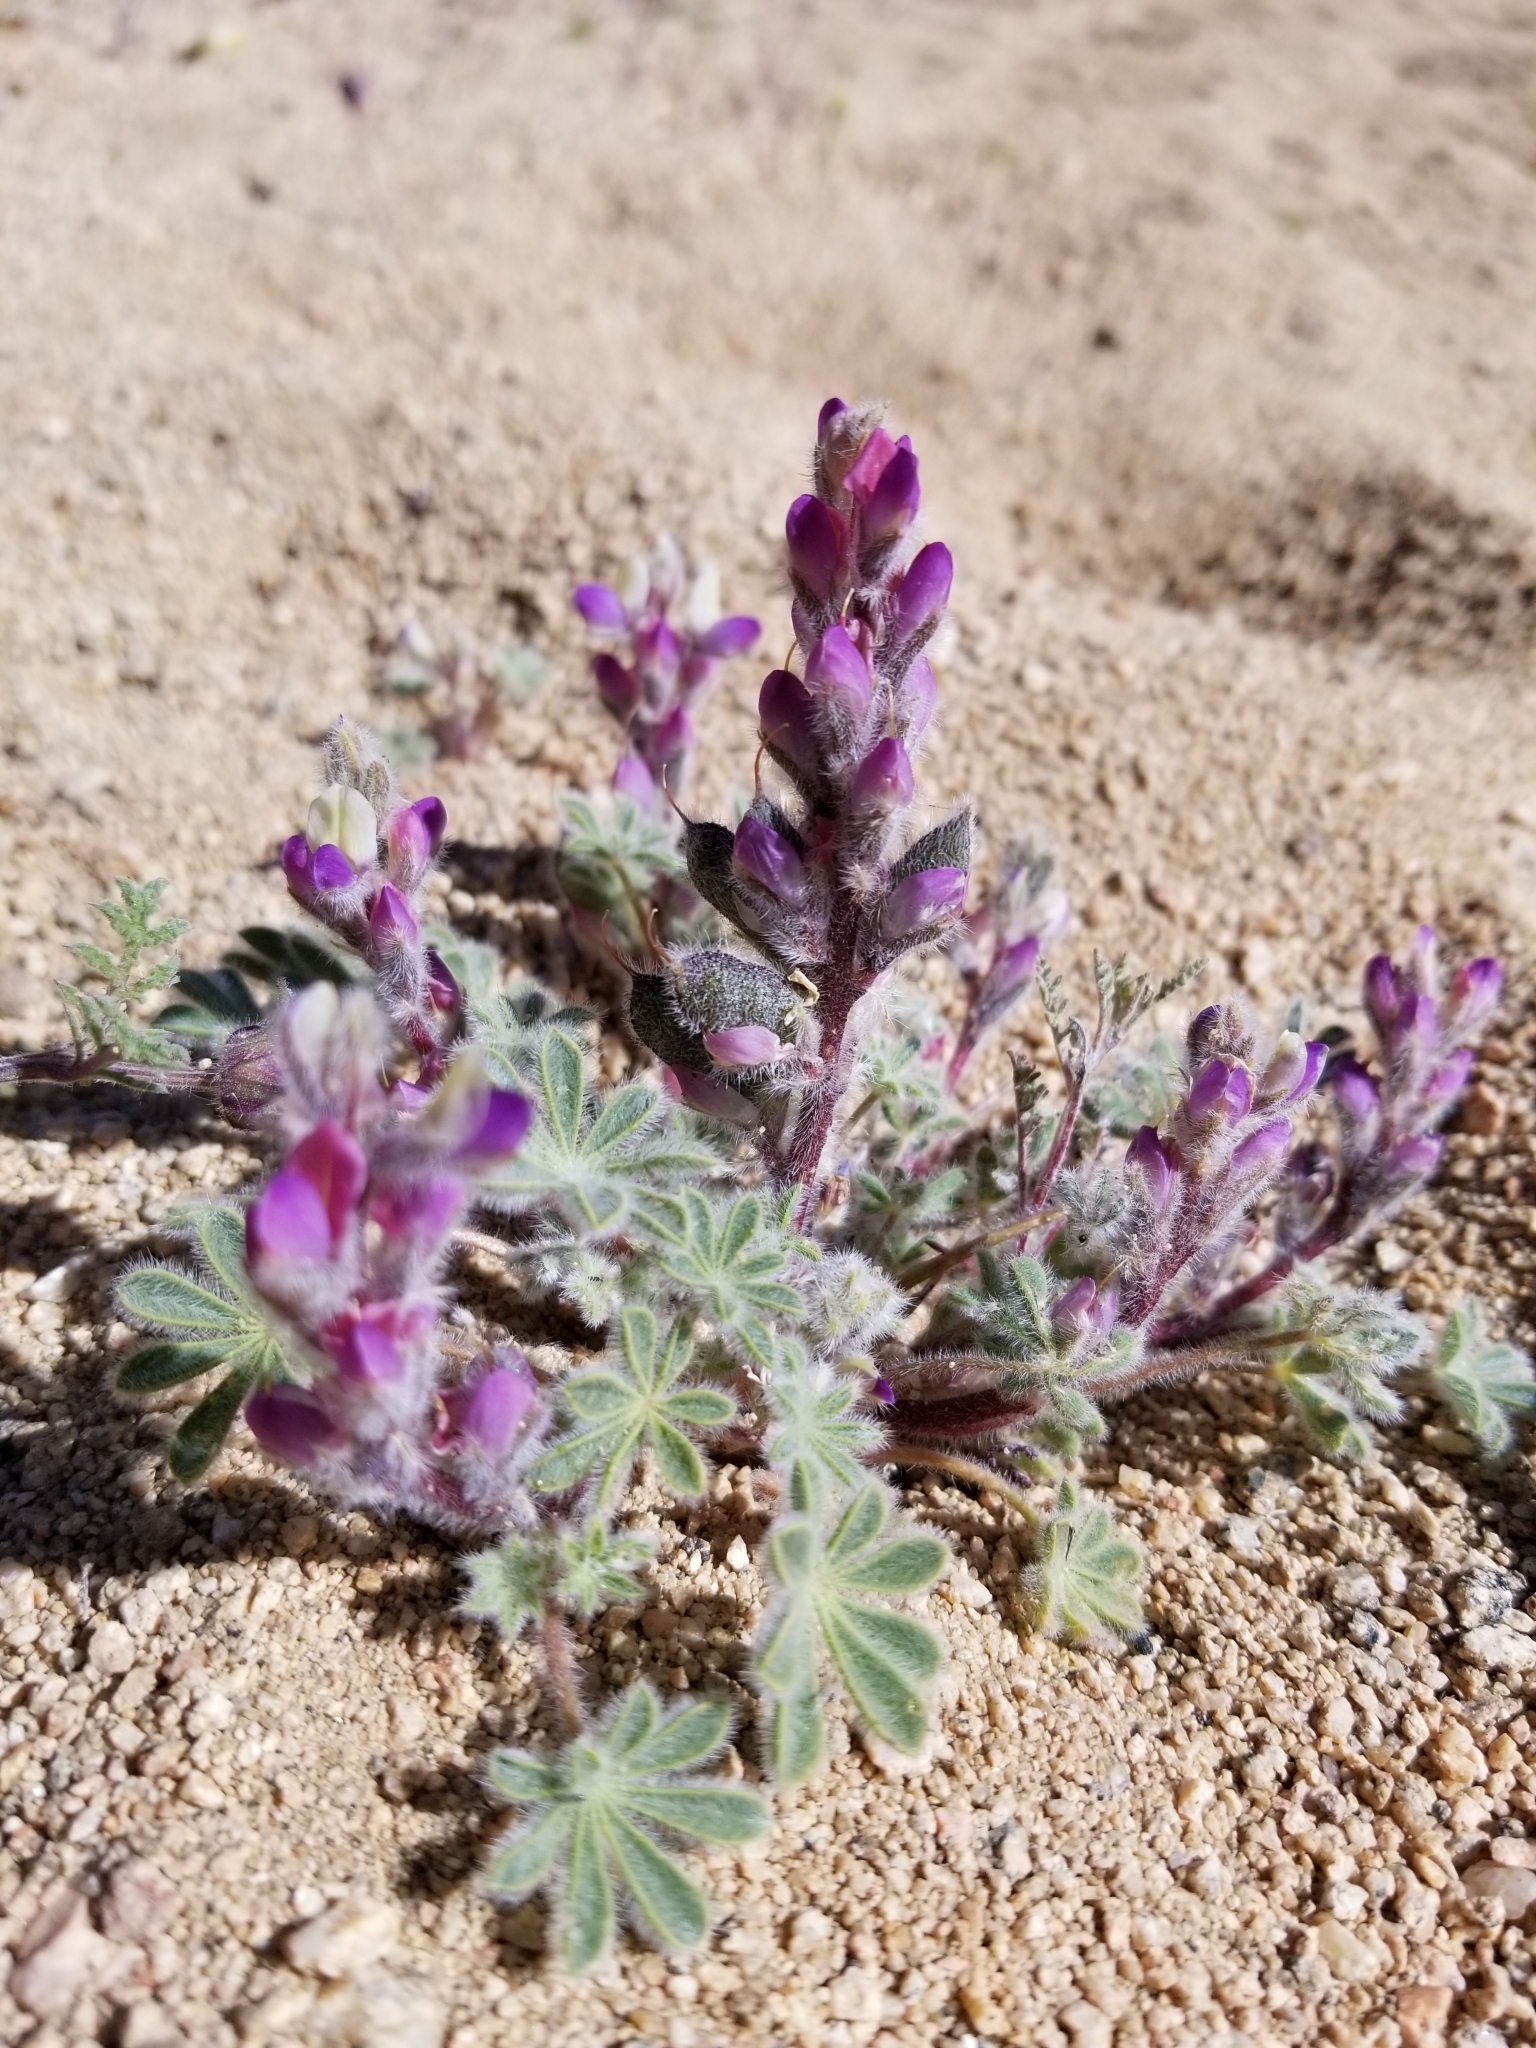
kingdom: Plantae
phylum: Tracheophyta
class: Magnoliopsida
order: Fabales
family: Fabaceae
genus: Lupinus
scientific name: Lupinus concinnus
